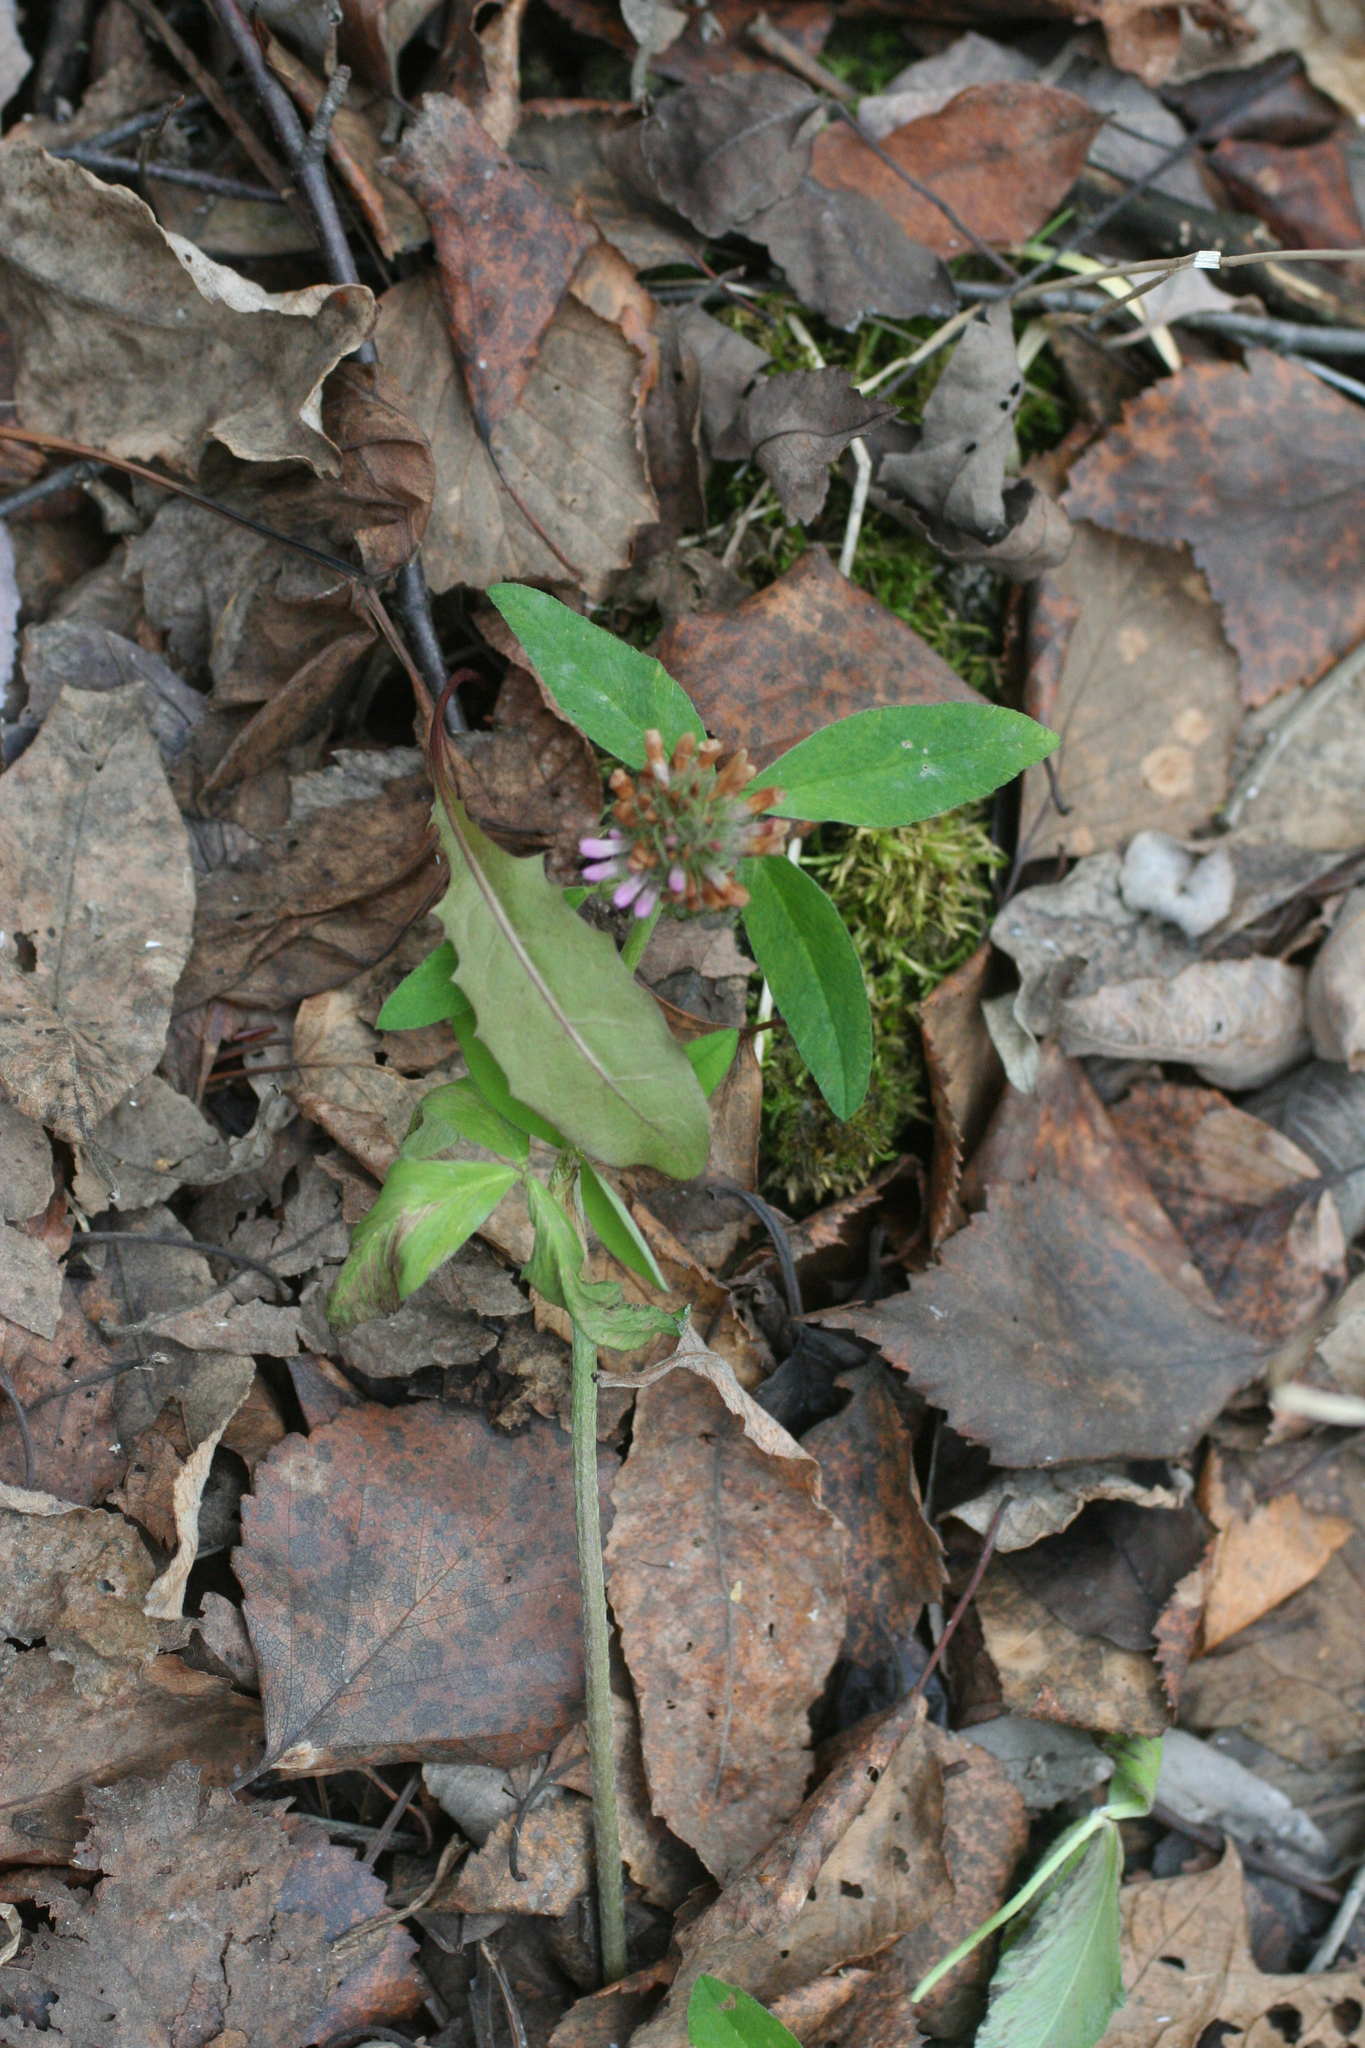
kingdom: Plantae
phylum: Tracheophyta
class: Magnoliopsida
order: Fabales
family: Fabaceae
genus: Trifolium
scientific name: Trifolium pratense
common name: Red clover
